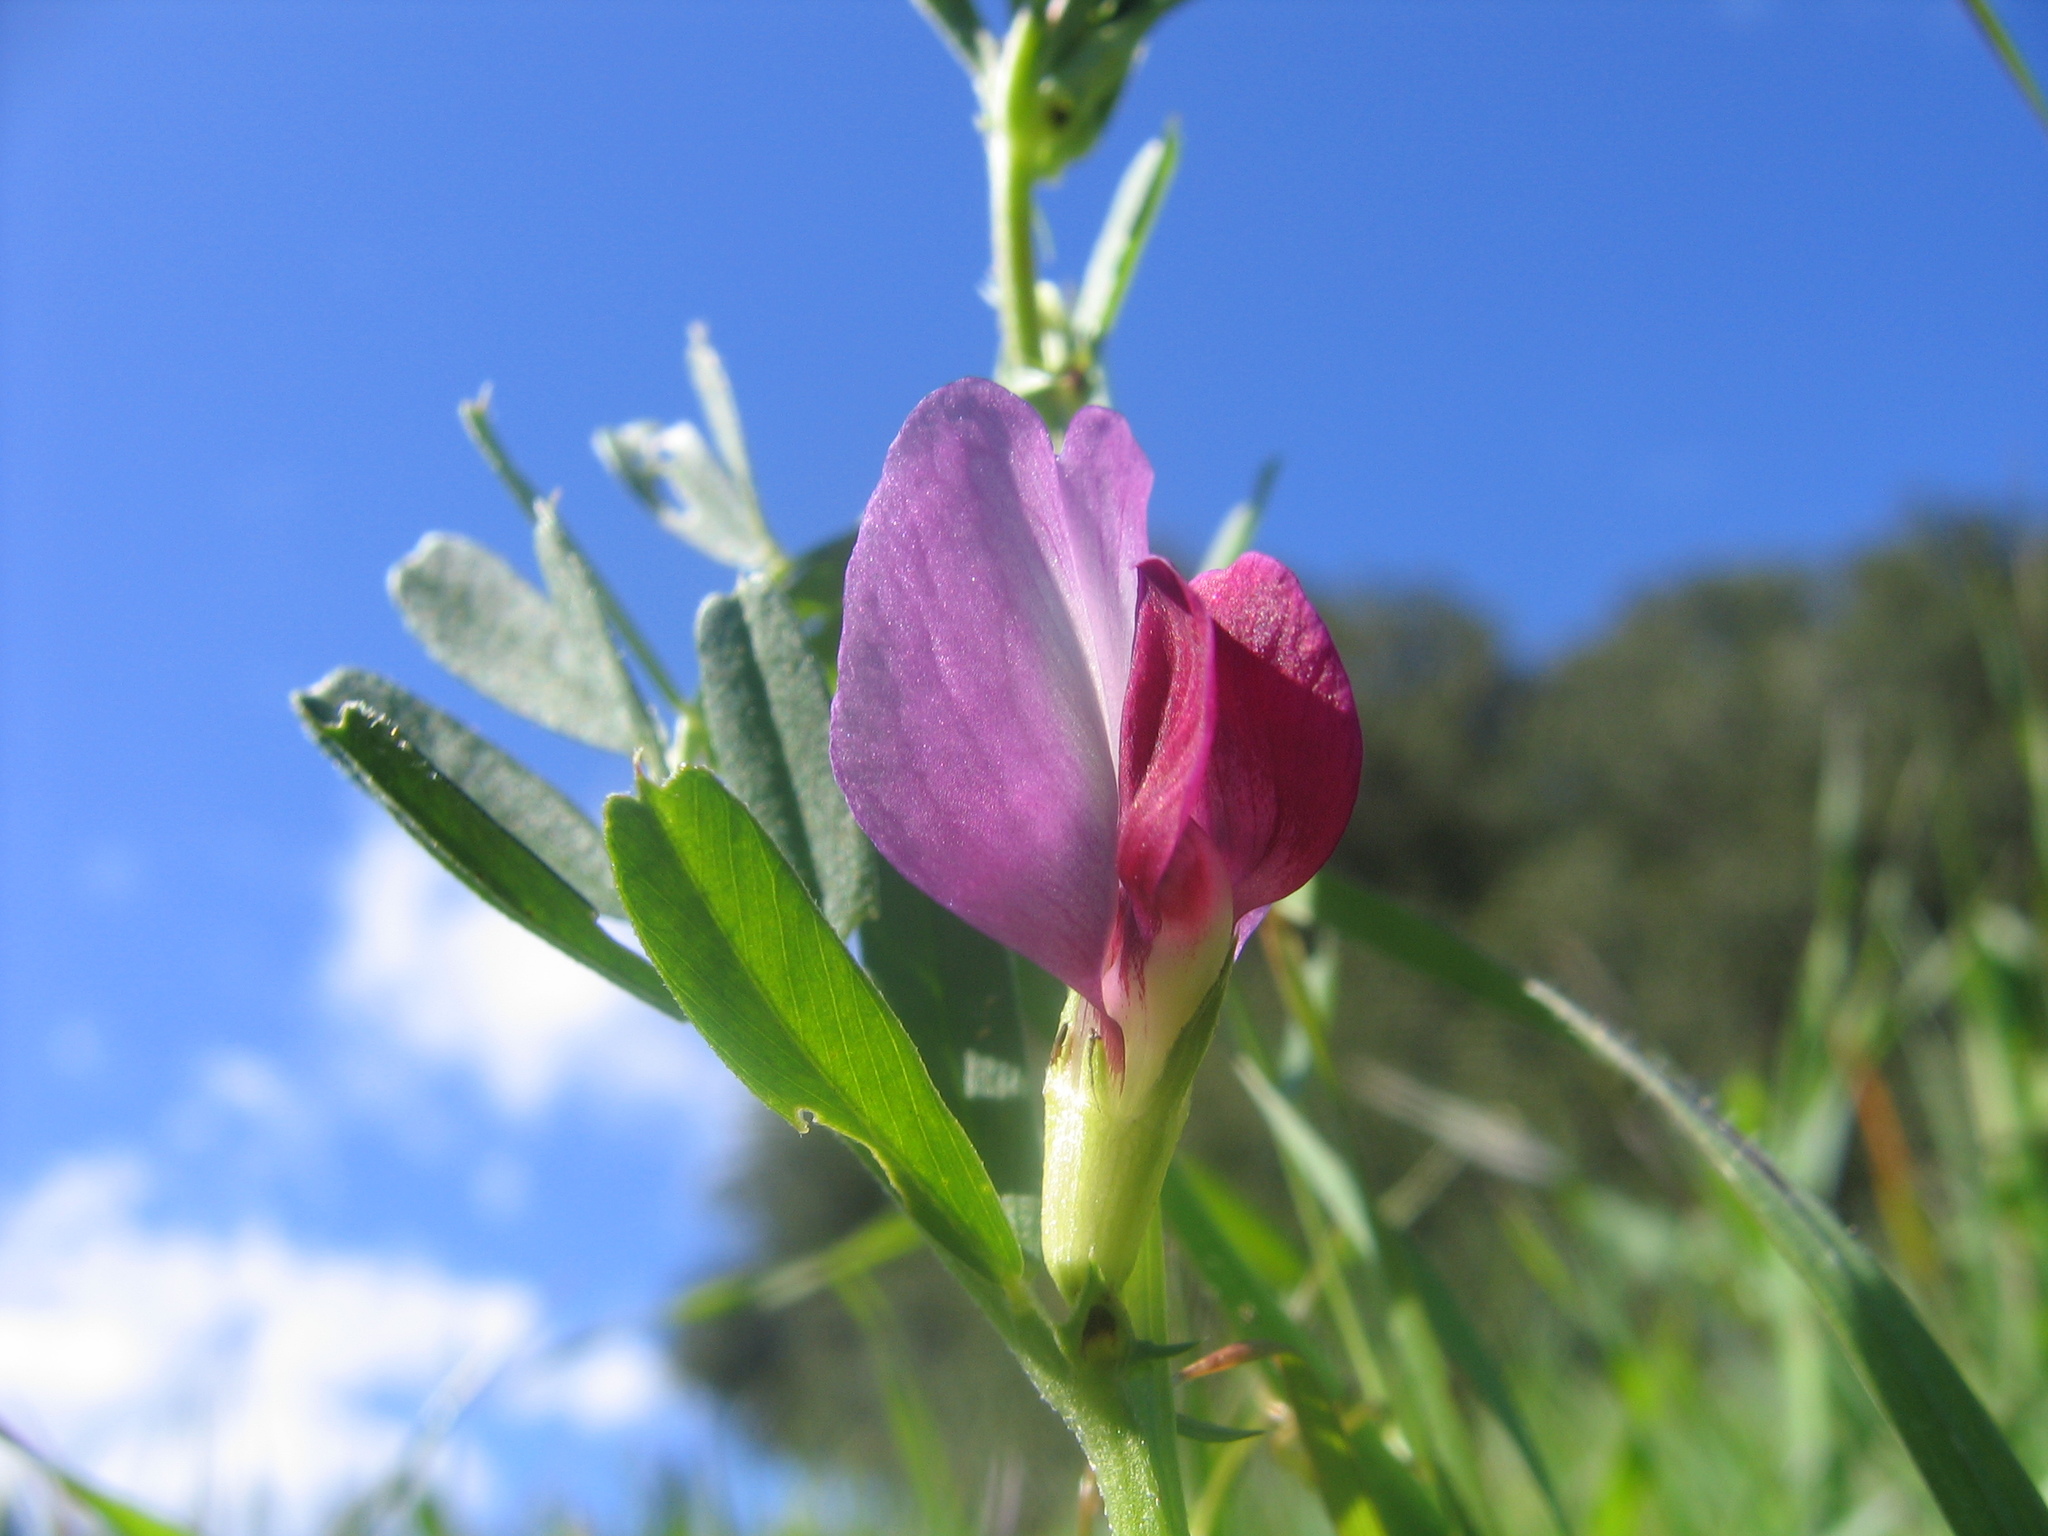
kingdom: Plantae
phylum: Tracheophyta
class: Magnoliopsida
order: Fabales
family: Fabaceae
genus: Vicia
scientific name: Vicia sativa
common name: Garden vetch
